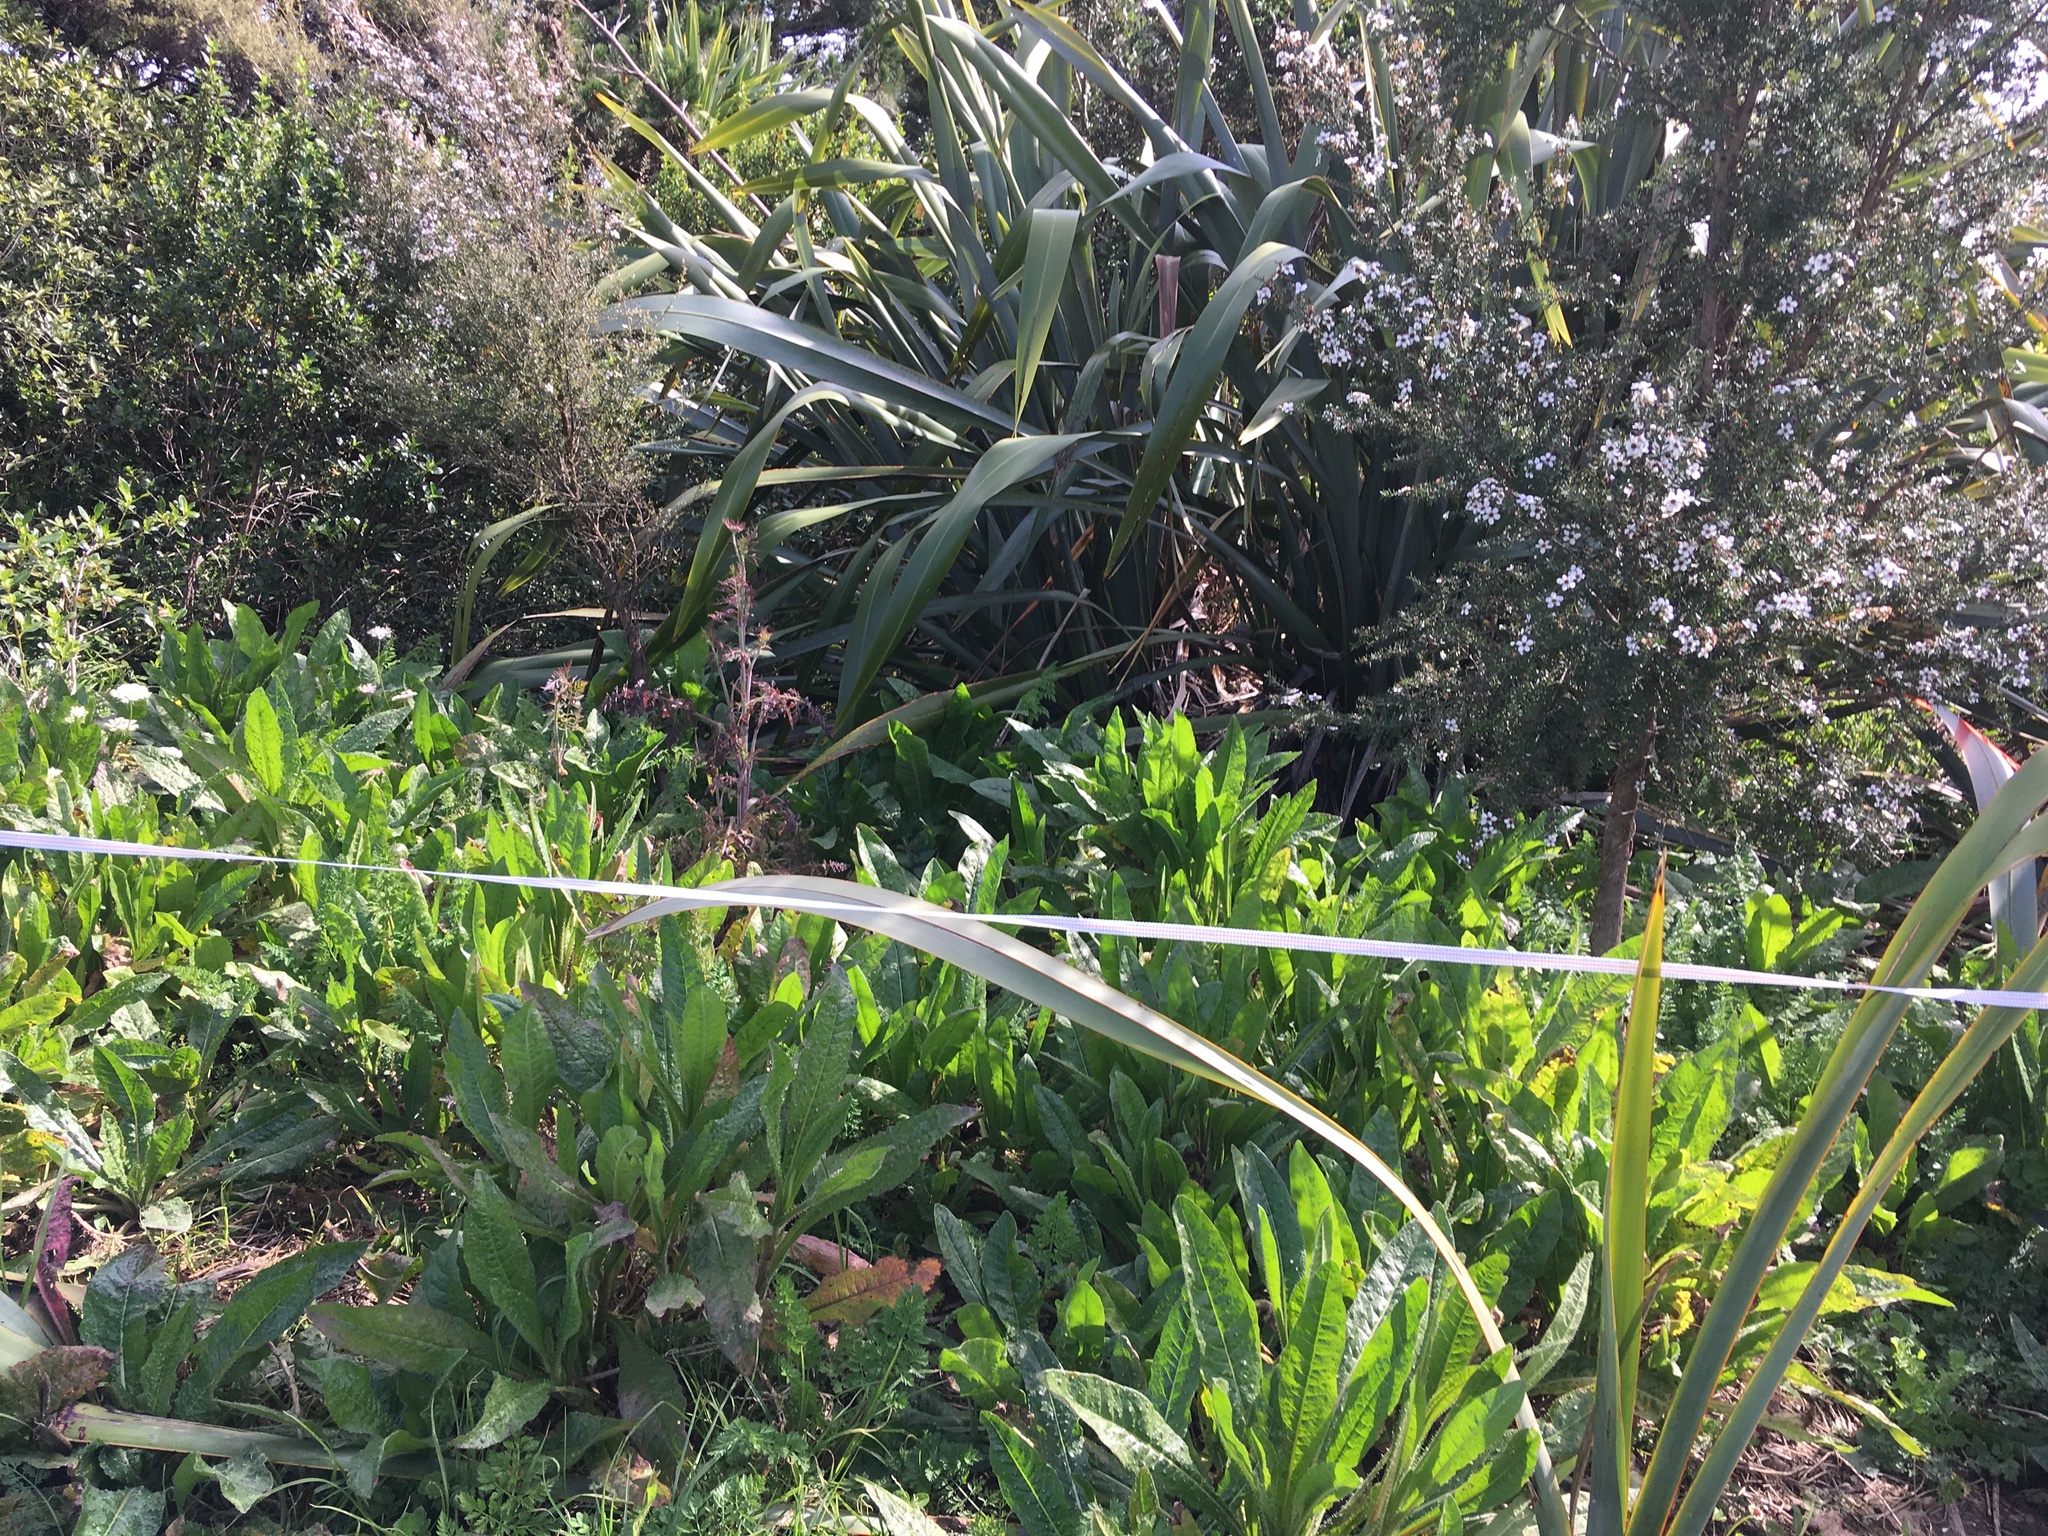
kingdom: Plantae
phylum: Tracheophyta
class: Magnoliopsida
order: Asterales
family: Asteraceae
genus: Helminthotheca
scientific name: Helminthotheca echioides
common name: Ox-tongue
